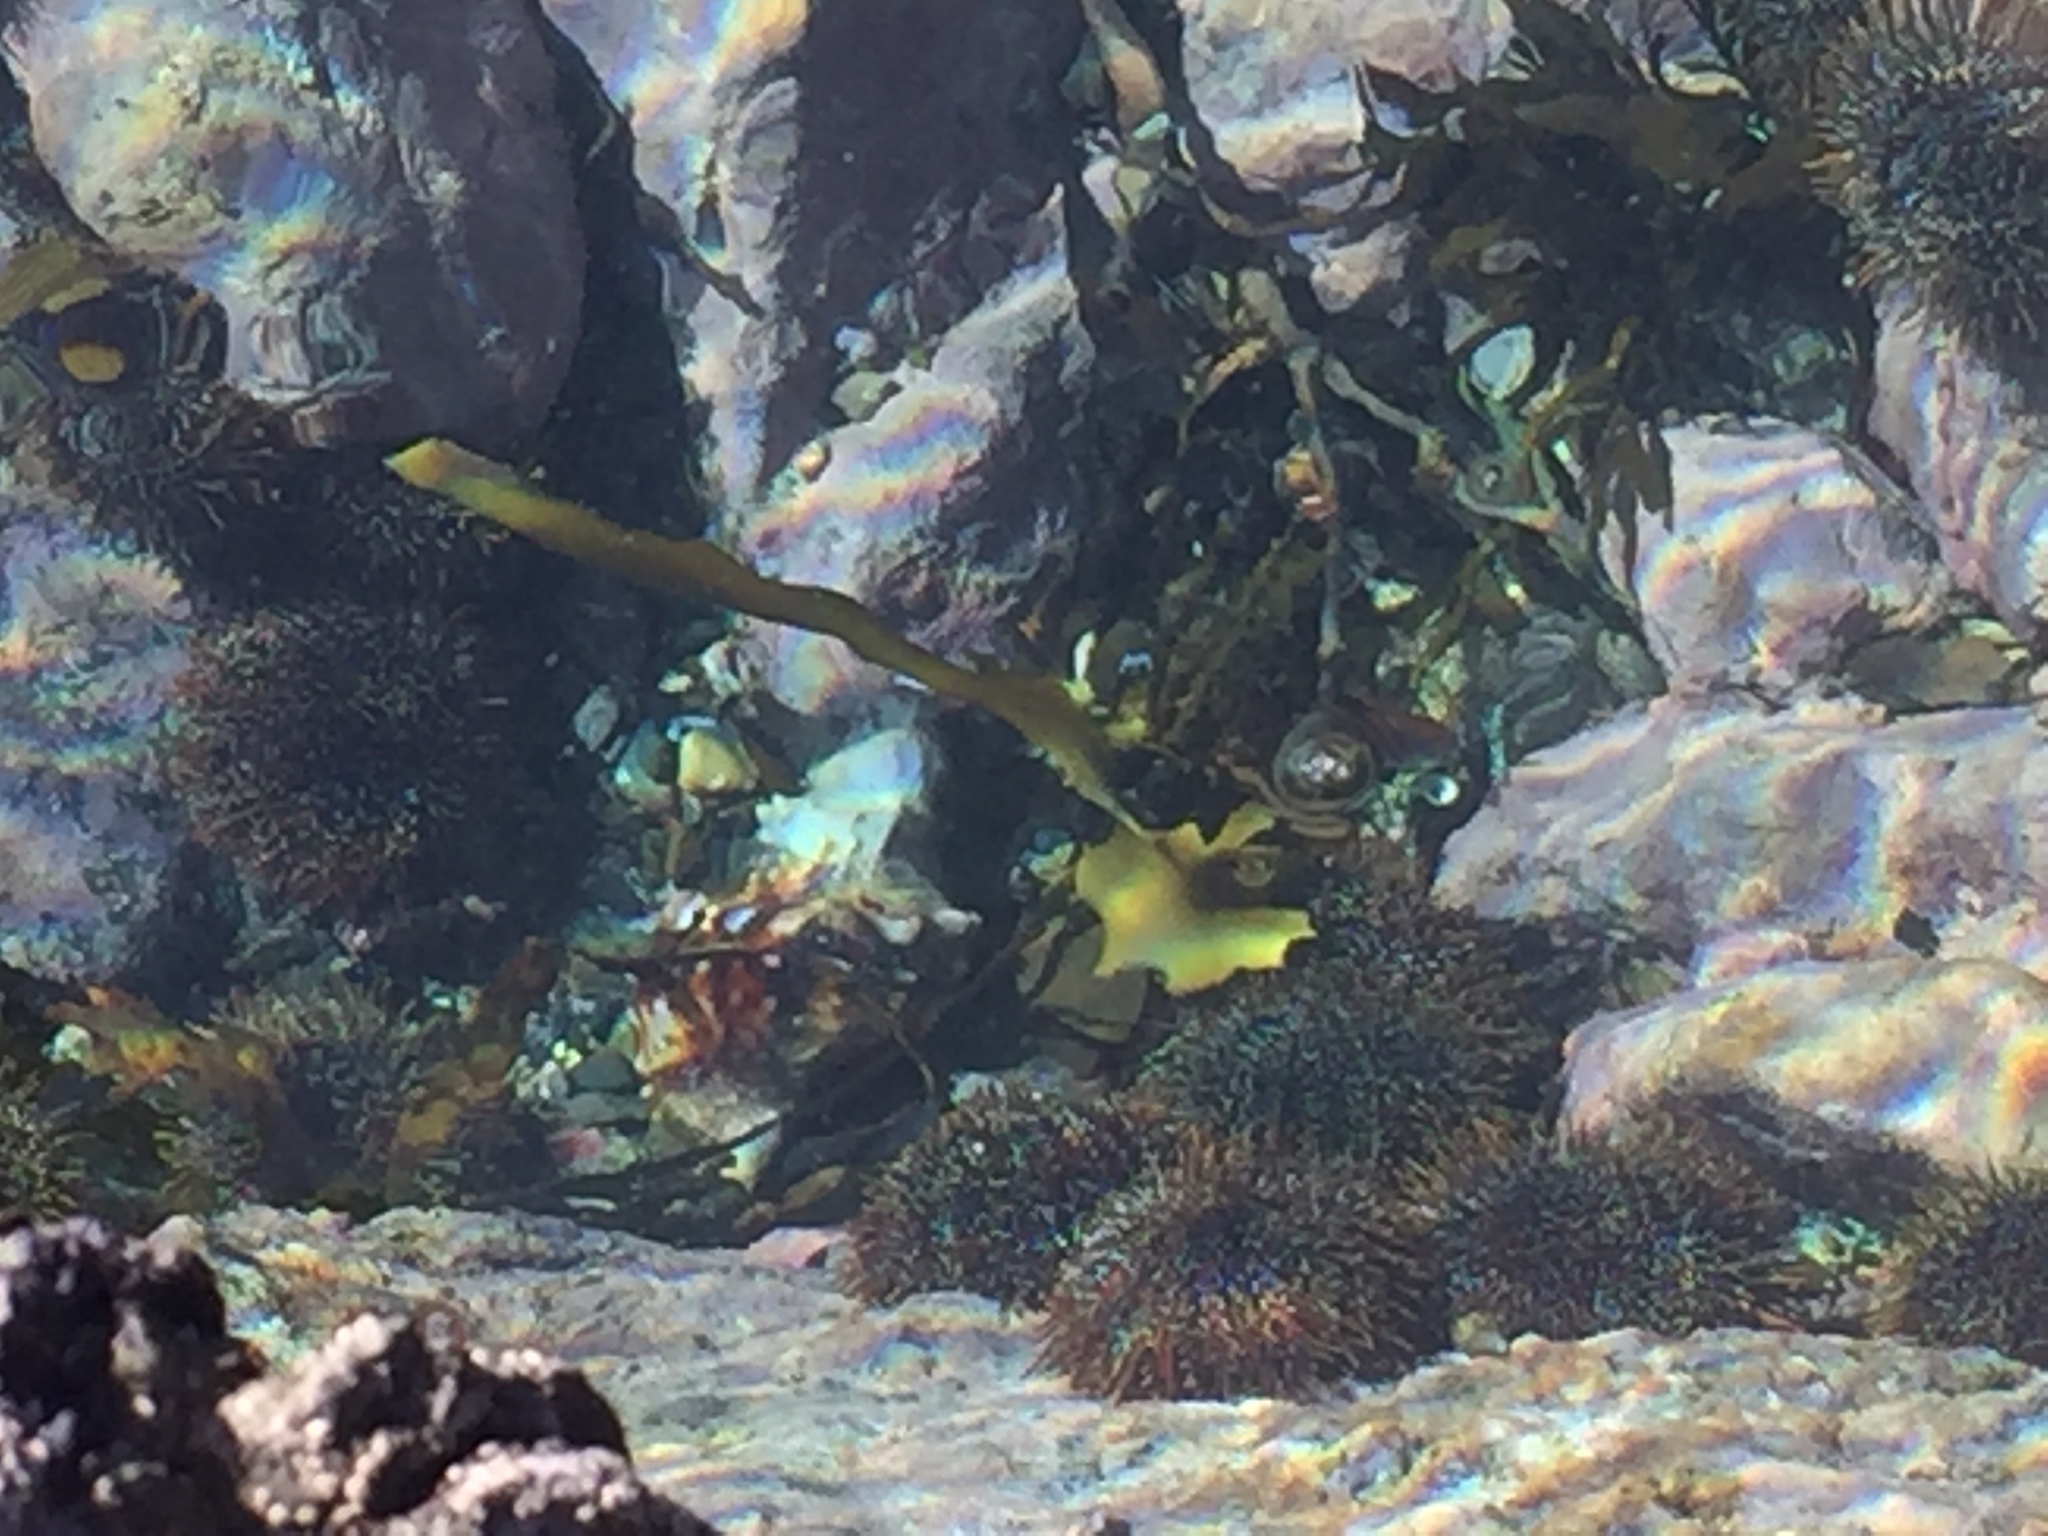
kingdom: Chromista
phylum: Ochrophyta
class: Phaeophyceae
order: Laminariales
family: Lessoniaceae
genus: Ecklonia
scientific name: Ecklonia radiata
